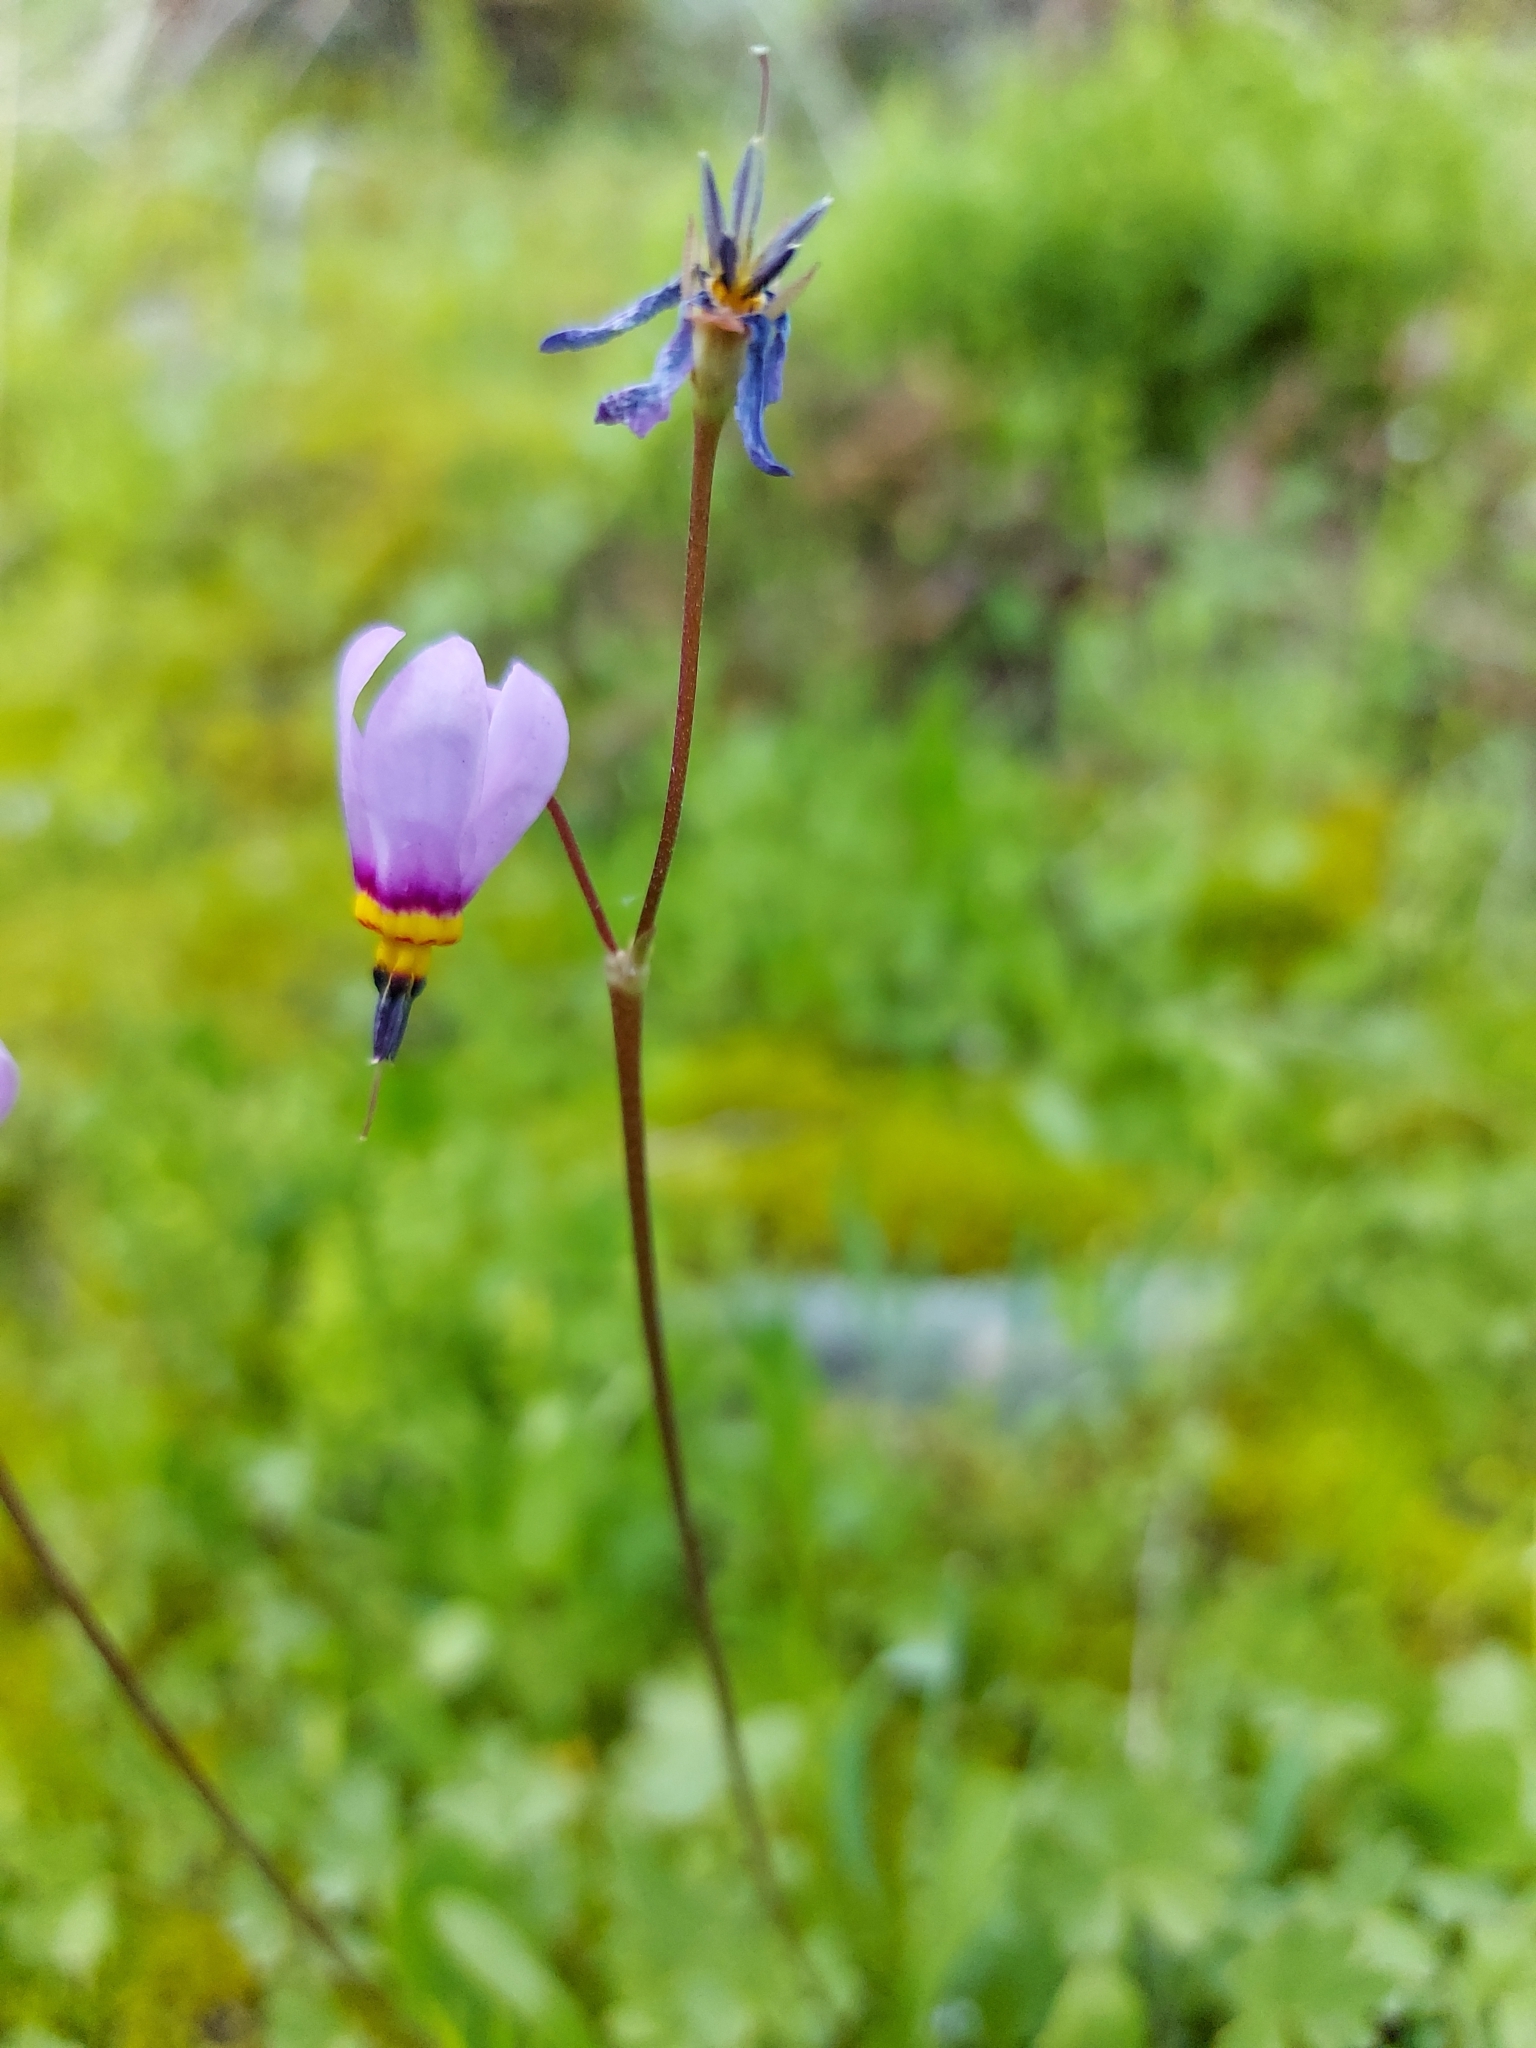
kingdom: Plantae
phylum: Tracheophyta
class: Magnoliopsida
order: Ericales
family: Primulaceae
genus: Dodecatheon
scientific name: Dodecatheon pulchellum
